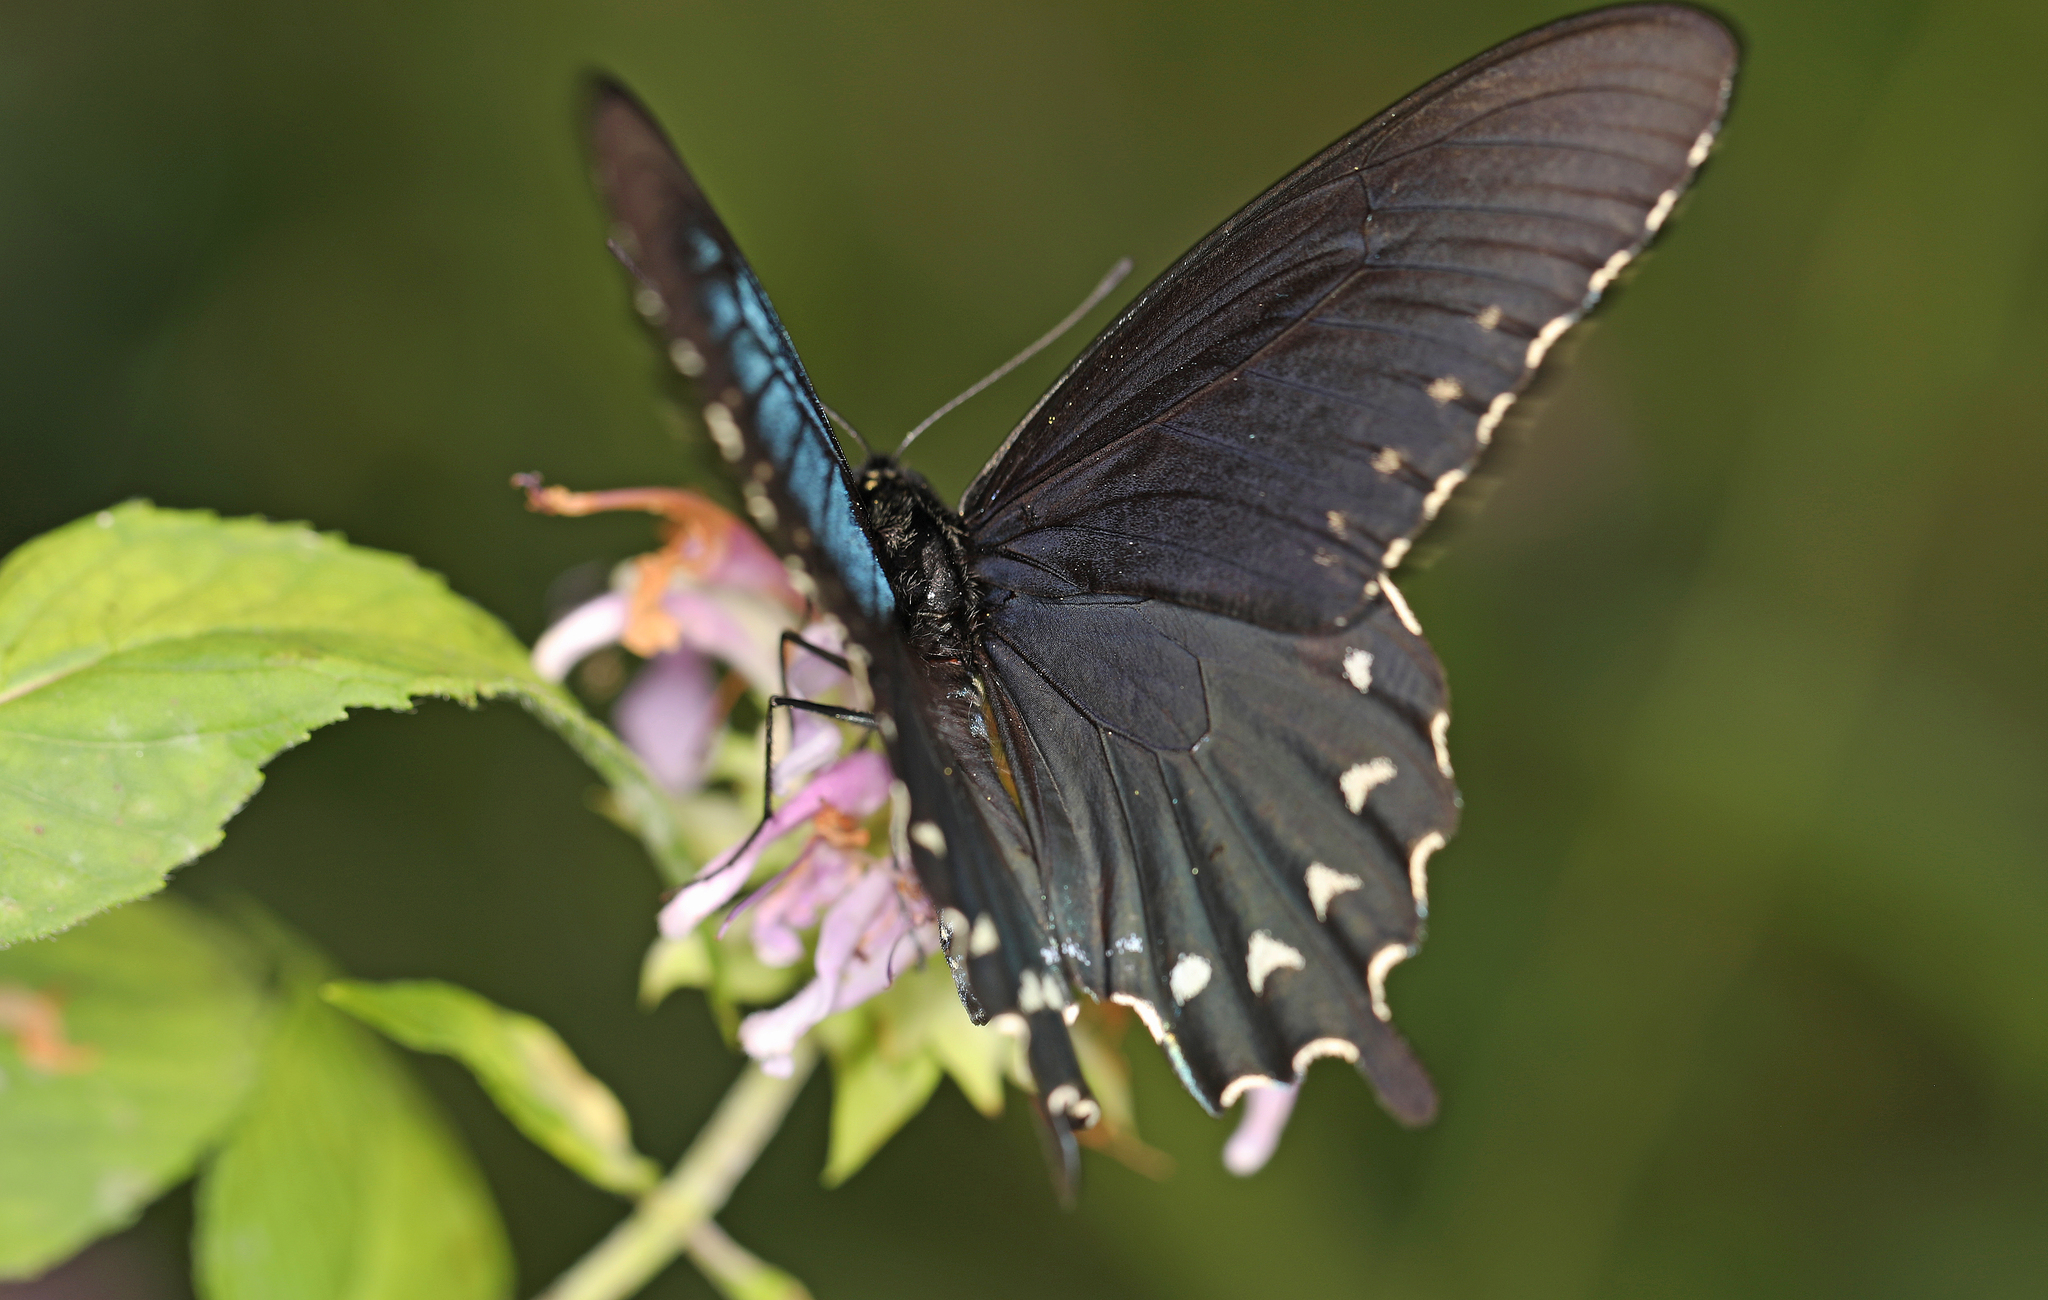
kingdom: Animalia
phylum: Arthropoda
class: Insecta
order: Lepidoptera
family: Papilionidae
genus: Battus
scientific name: Battus philenor
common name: Pipevine swallowtail
